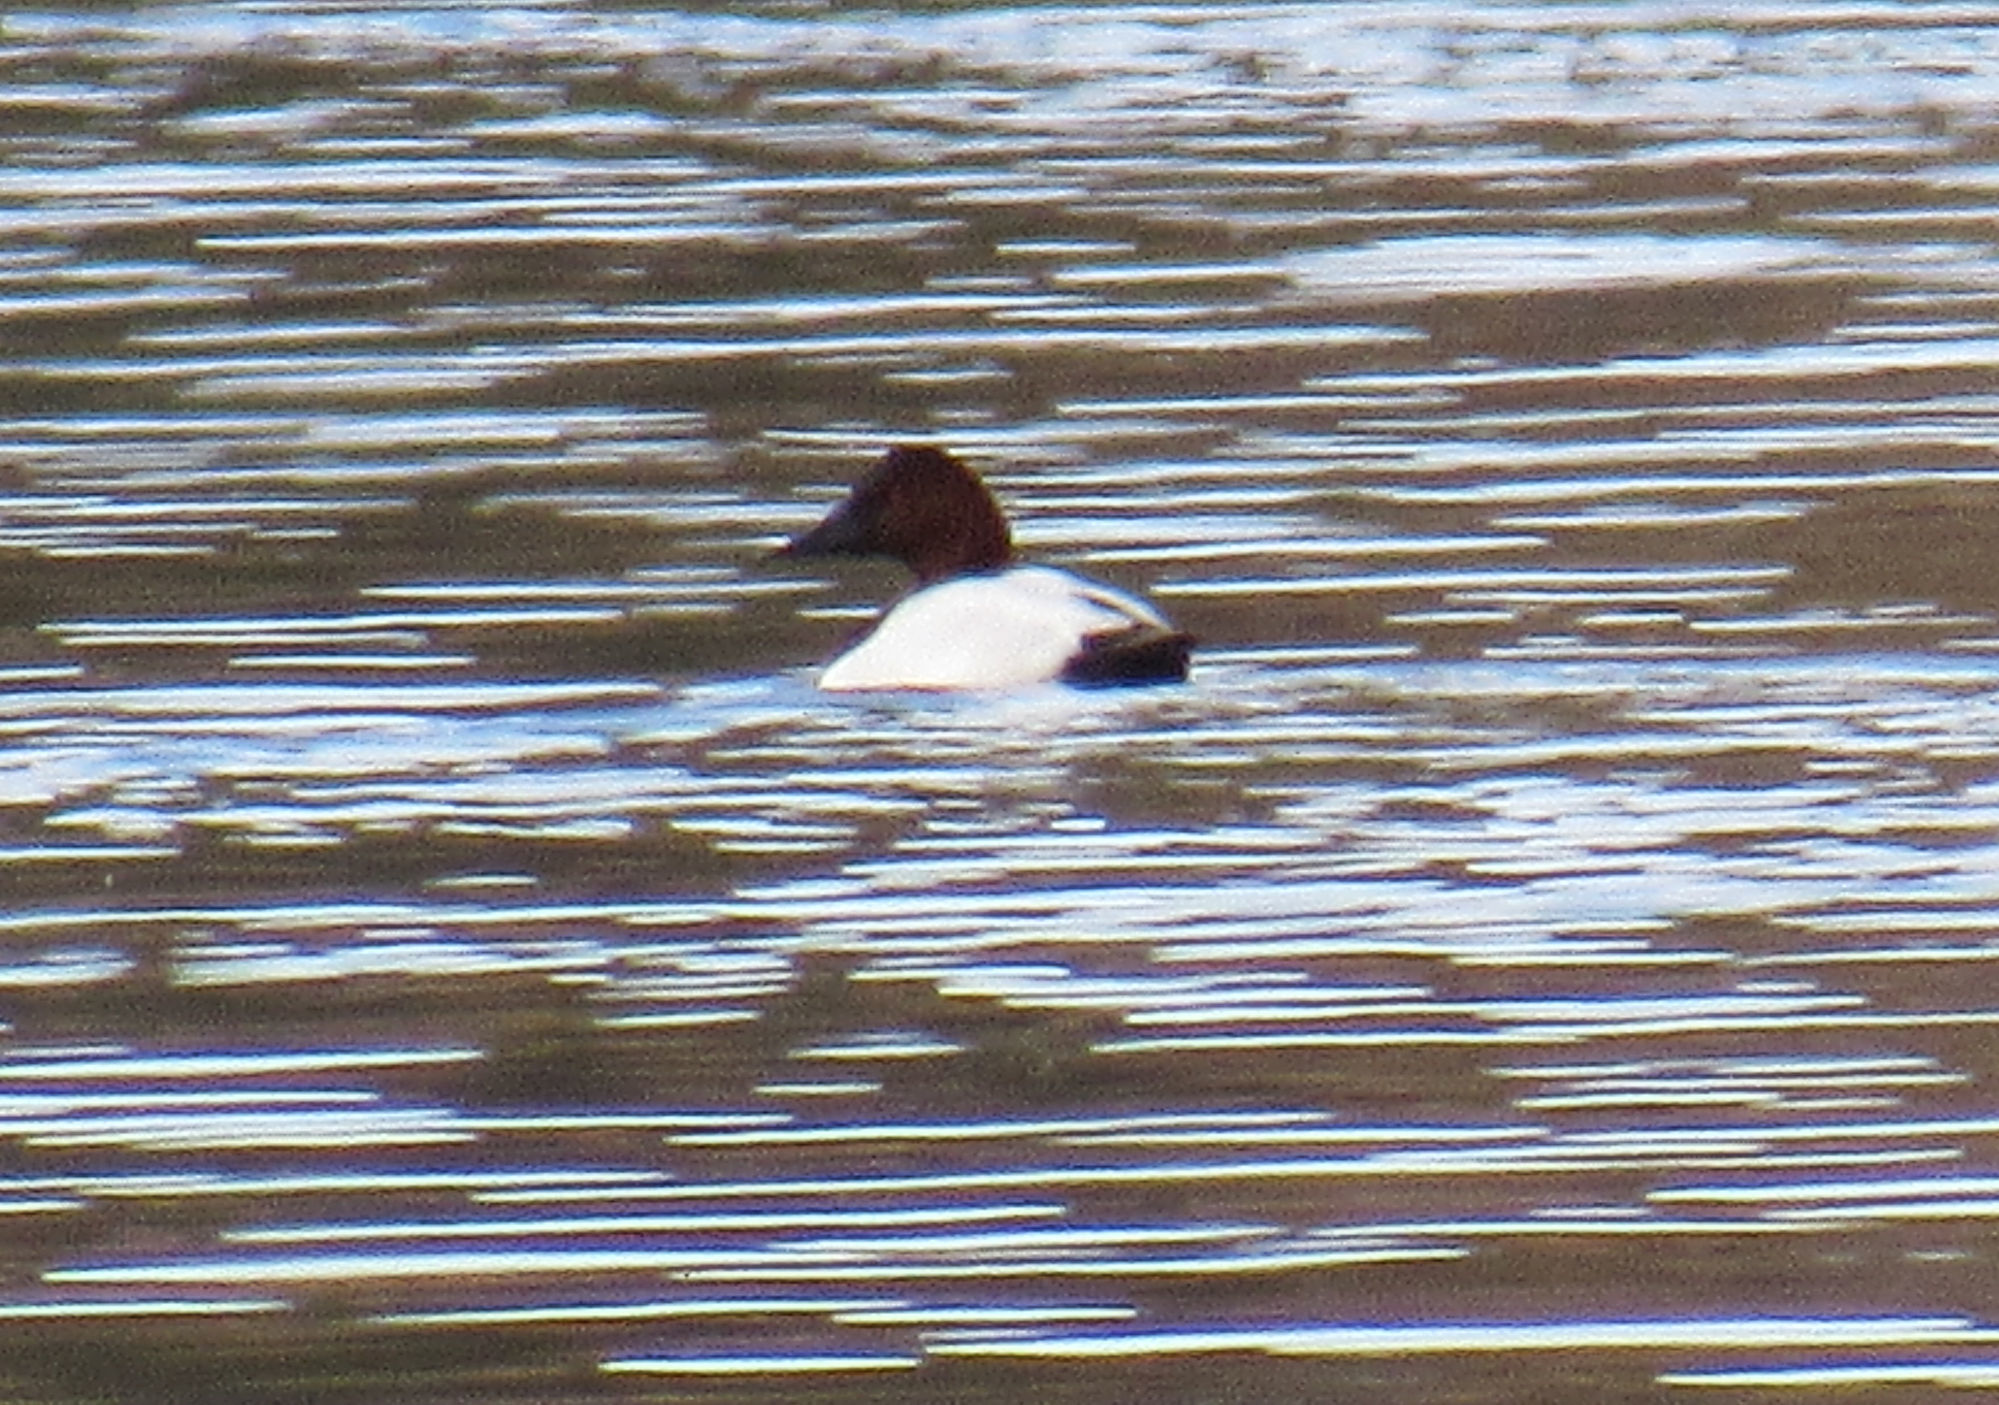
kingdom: Animalia
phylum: Chordata
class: Aves
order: Anseriformes
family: Anatidae
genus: Aythya
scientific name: Aythya valisineria
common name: Canvasback
